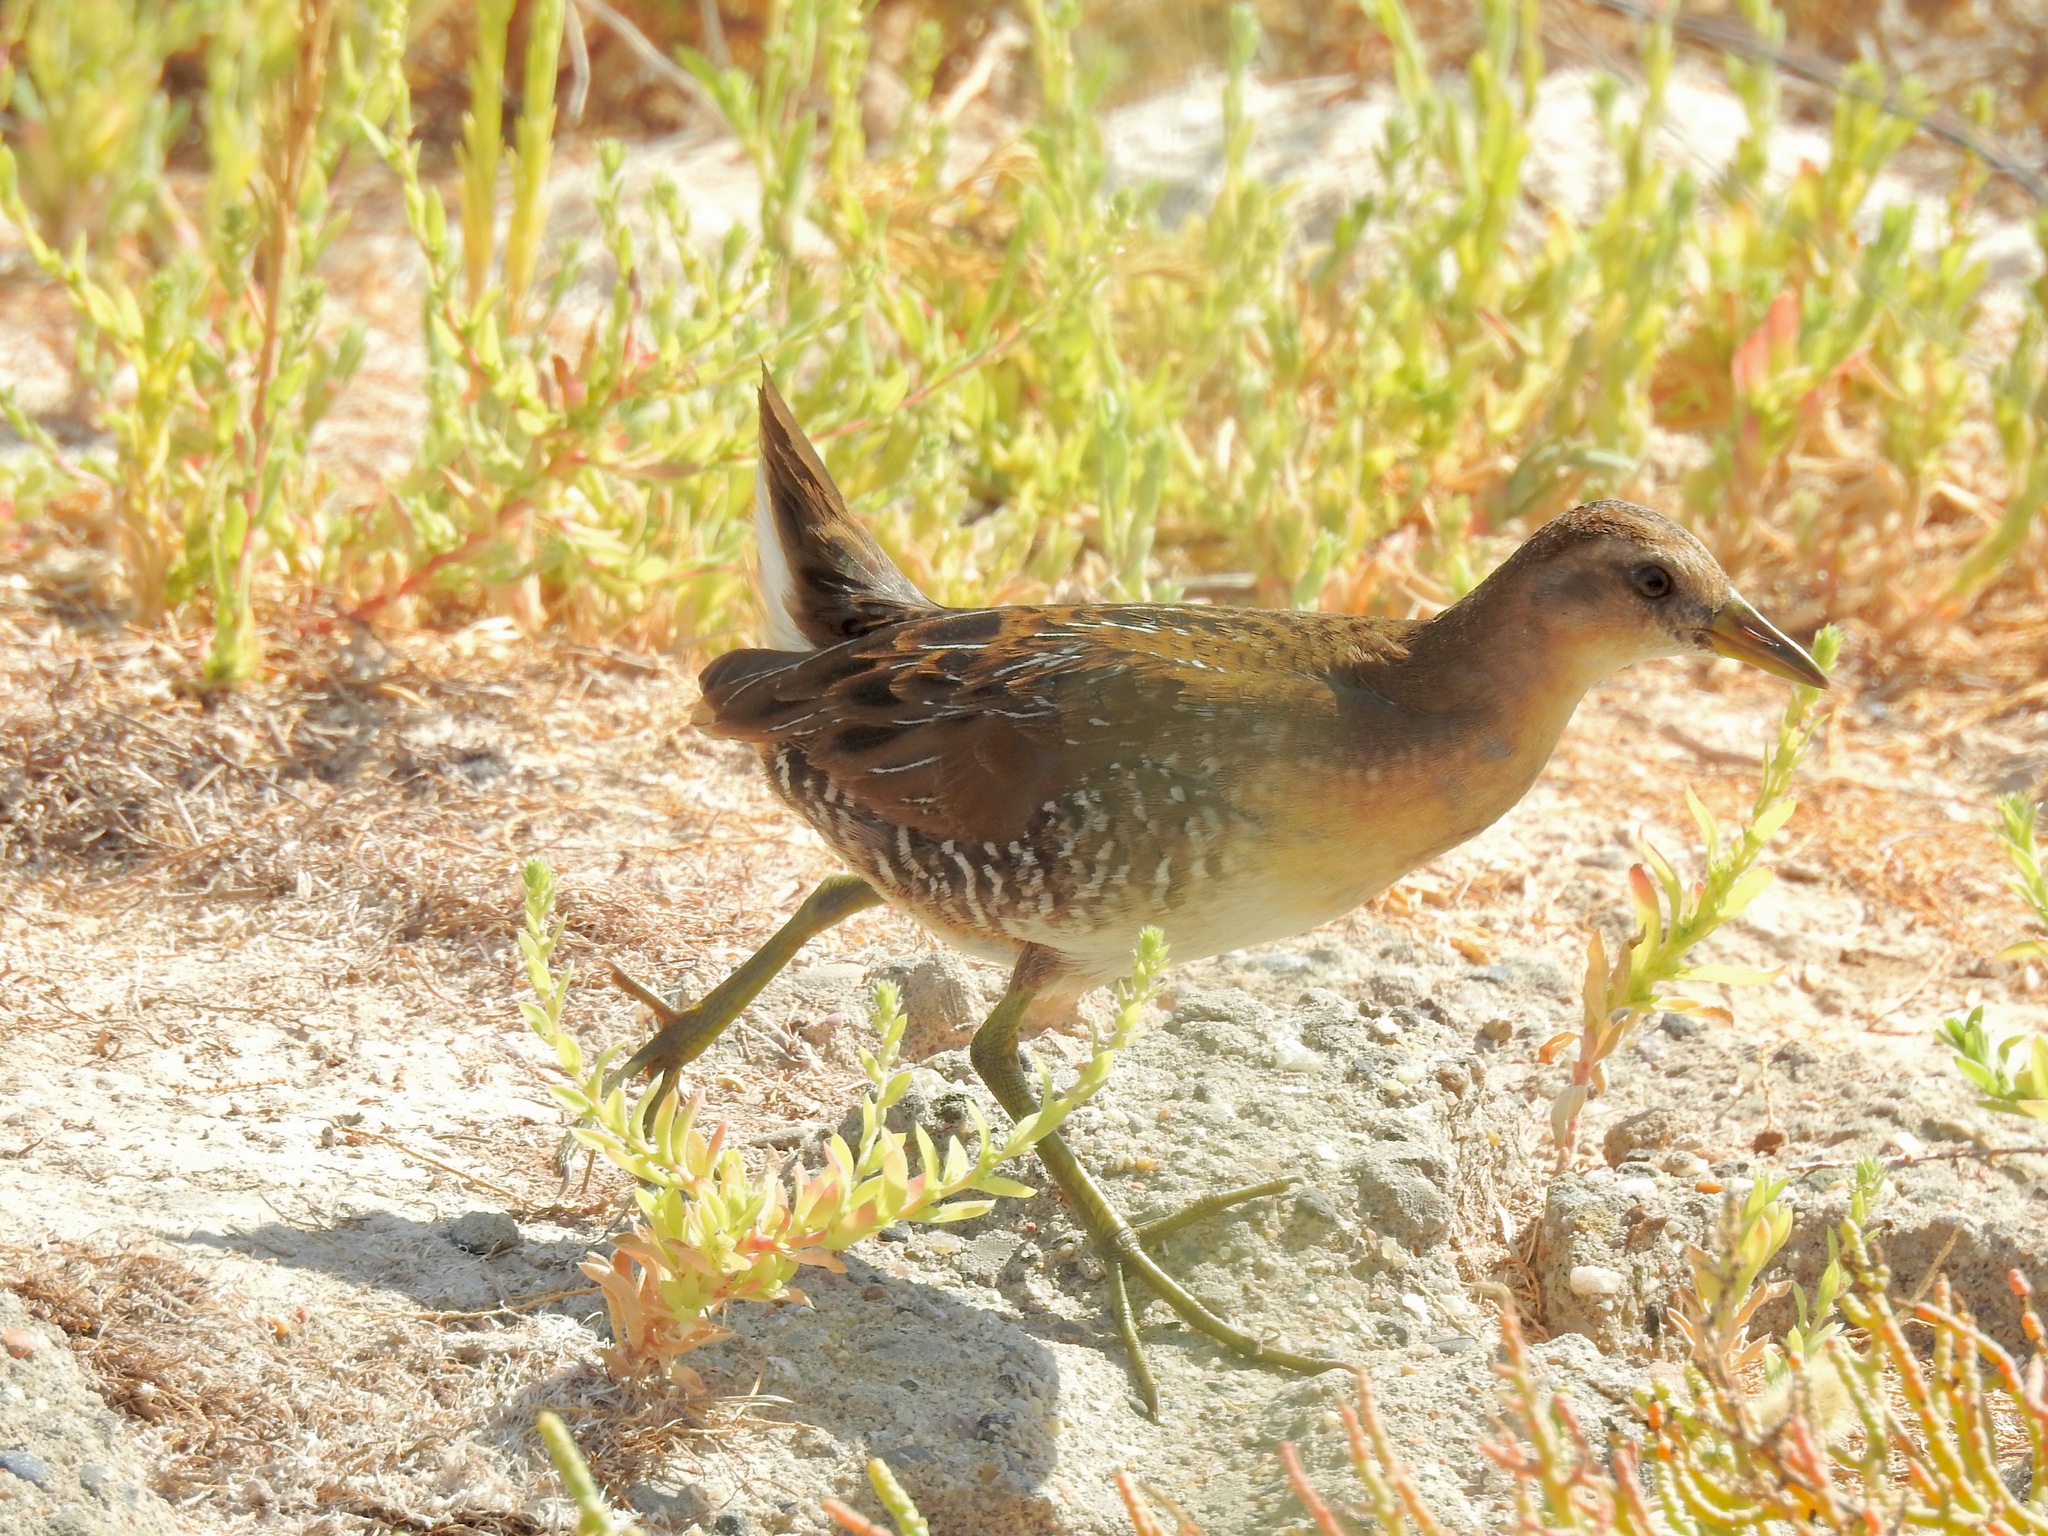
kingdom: Animalia
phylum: Chordata
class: Aves
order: Gruiformes
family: Rallidae
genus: Porzana
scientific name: Porzana carolina
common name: Sora
